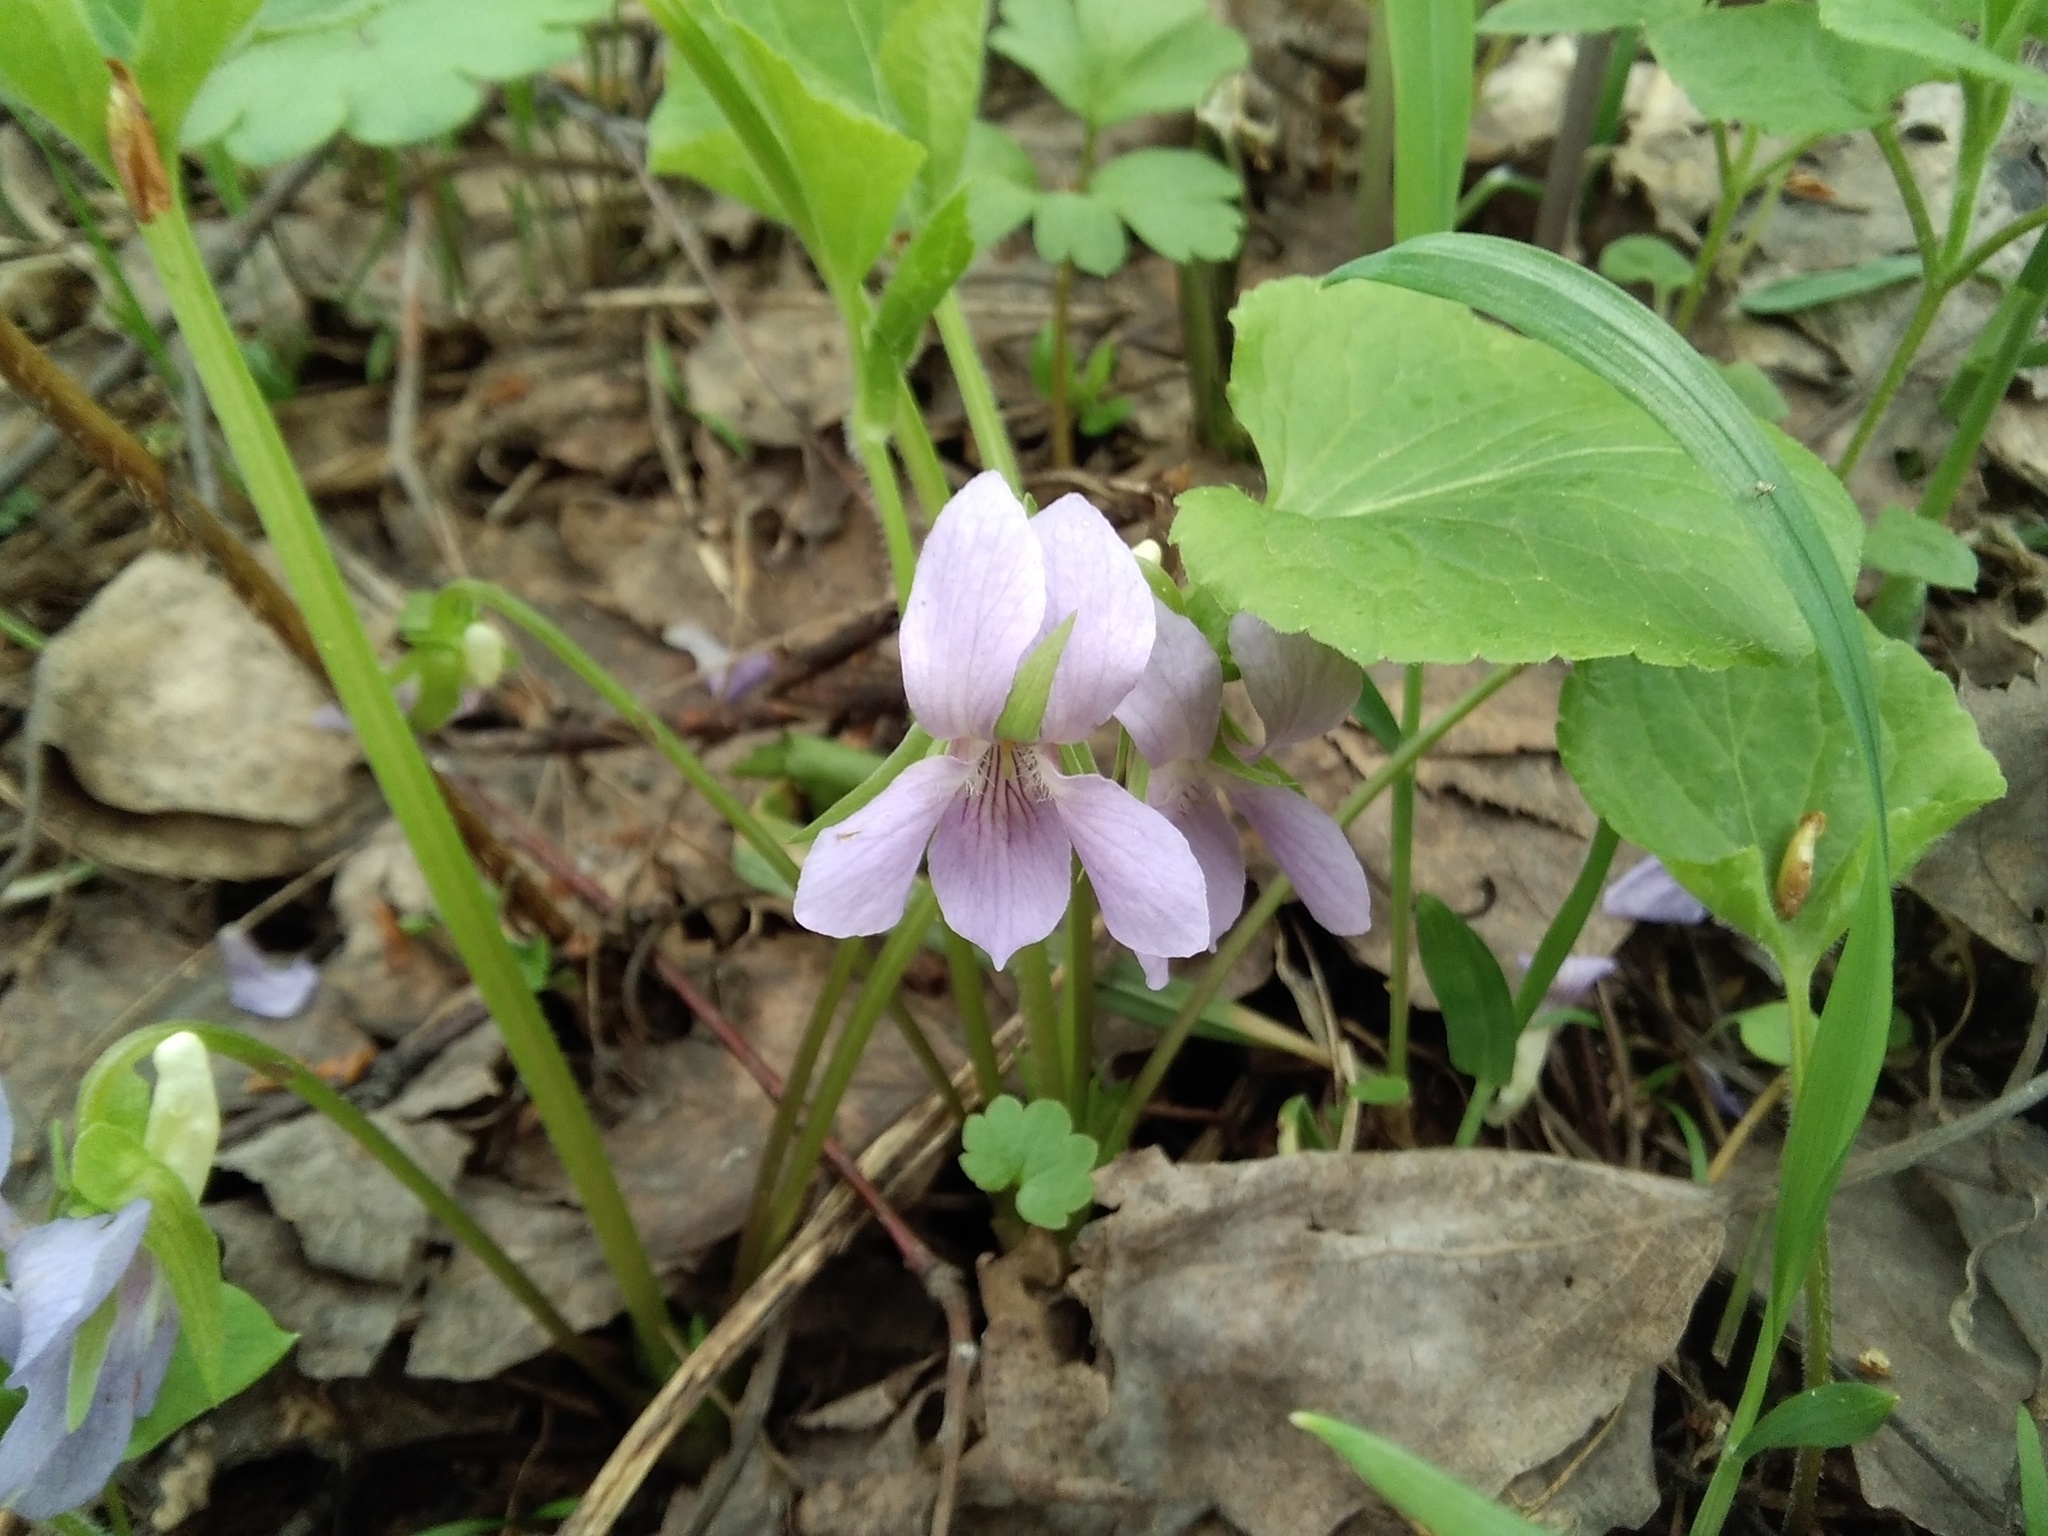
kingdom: Plantae
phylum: Tracheophyta
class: Magnoliopsida
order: Malpighiales
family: Violaceae
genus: Viola
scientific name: Viola mirabilis
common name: Wonder violet
